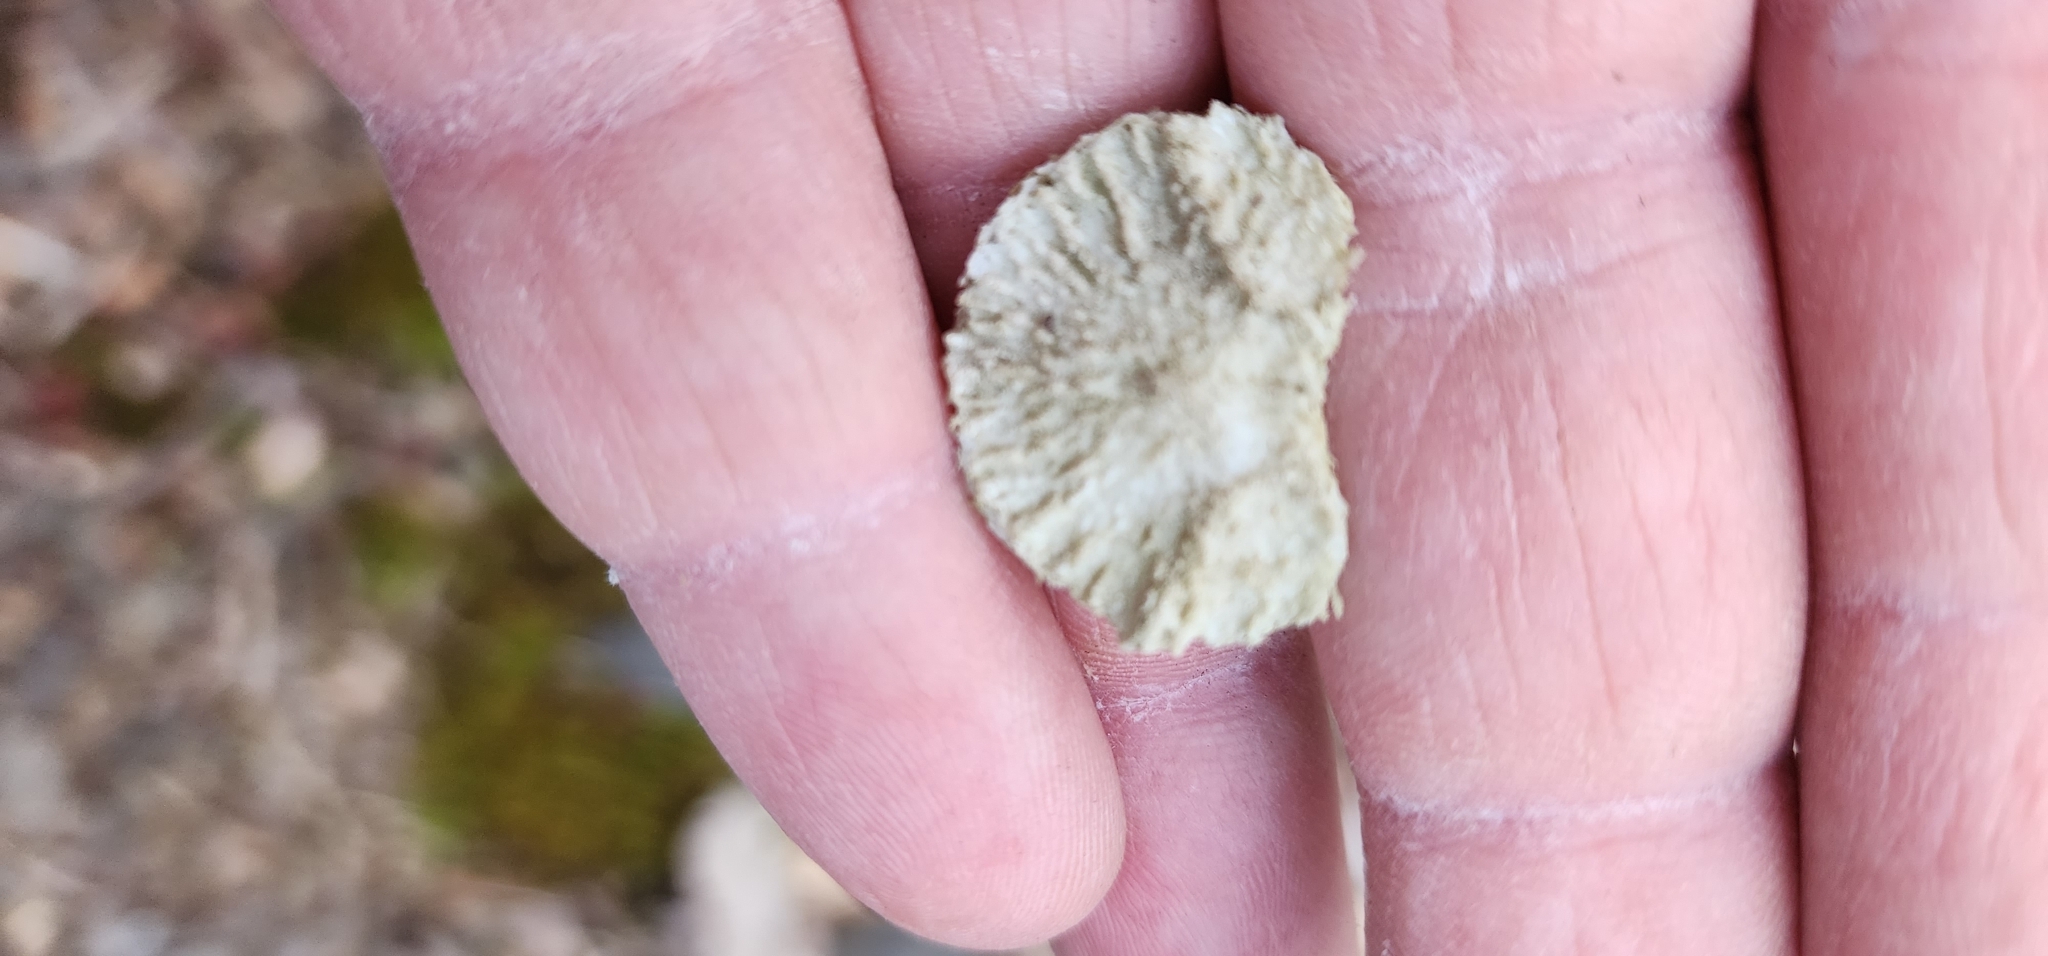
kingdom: Animalia
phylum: Chordata
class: Mammalia
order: Artiodactyla
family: Cervidae
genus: Odocoileus
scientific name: Odocoileus virginianus
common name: White-tailed deer
